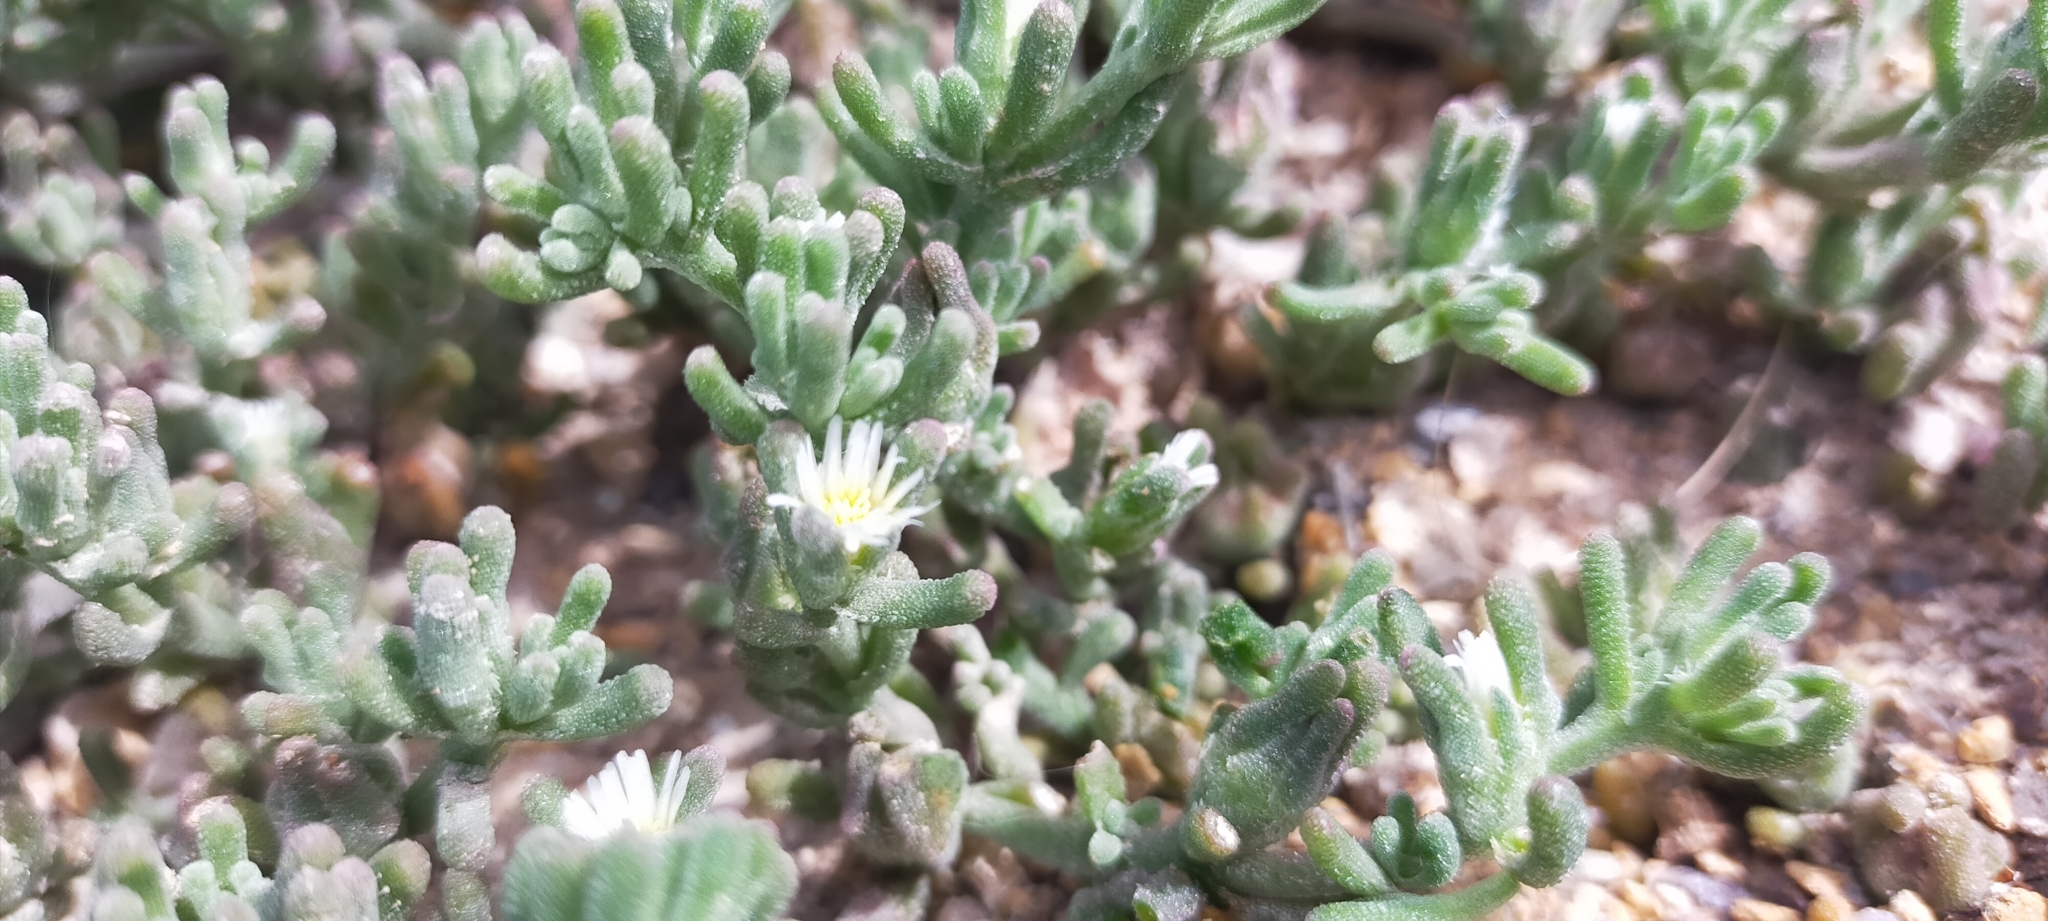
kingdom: Plantae
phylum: Tracheophyta
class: Magnoliopsida
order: Caryophyllales
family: Aizoaceae
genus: Mesembryanthemum
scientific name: Mesembryanthemum nodiflorum
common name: Slenderleaf iceplant
